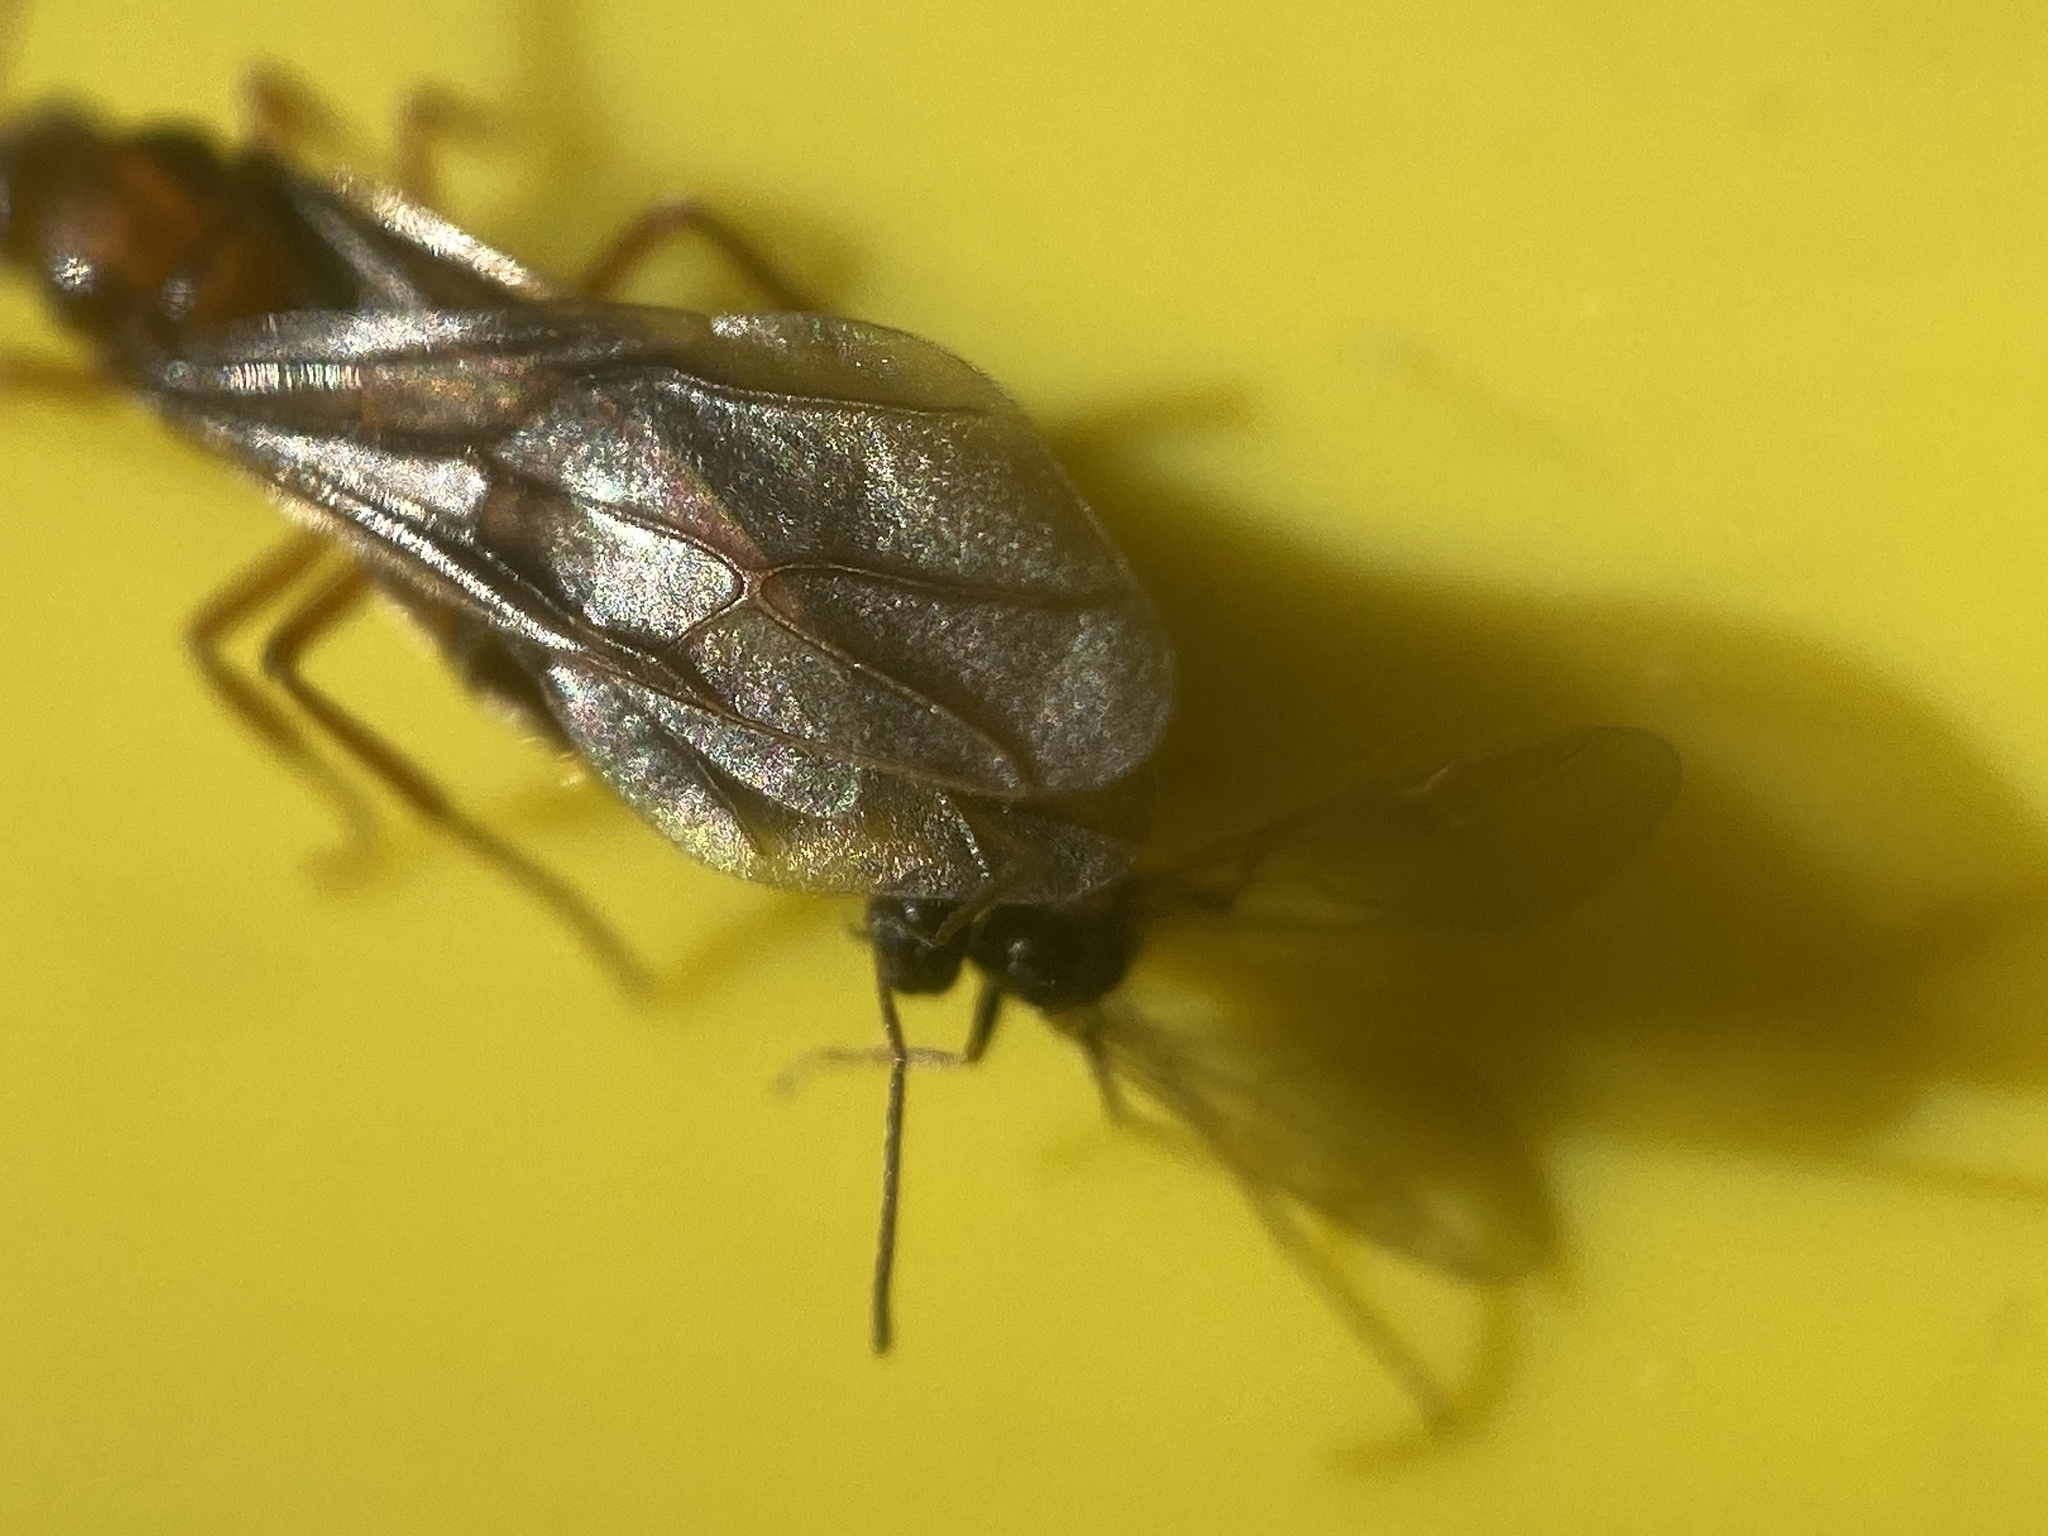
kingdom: Animalia
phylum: Arthropoda
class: Insecta
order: Hymenoptera
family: Formicidae
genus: Prenolepis
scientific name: Prenolepis imparis
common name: Small honey ant
